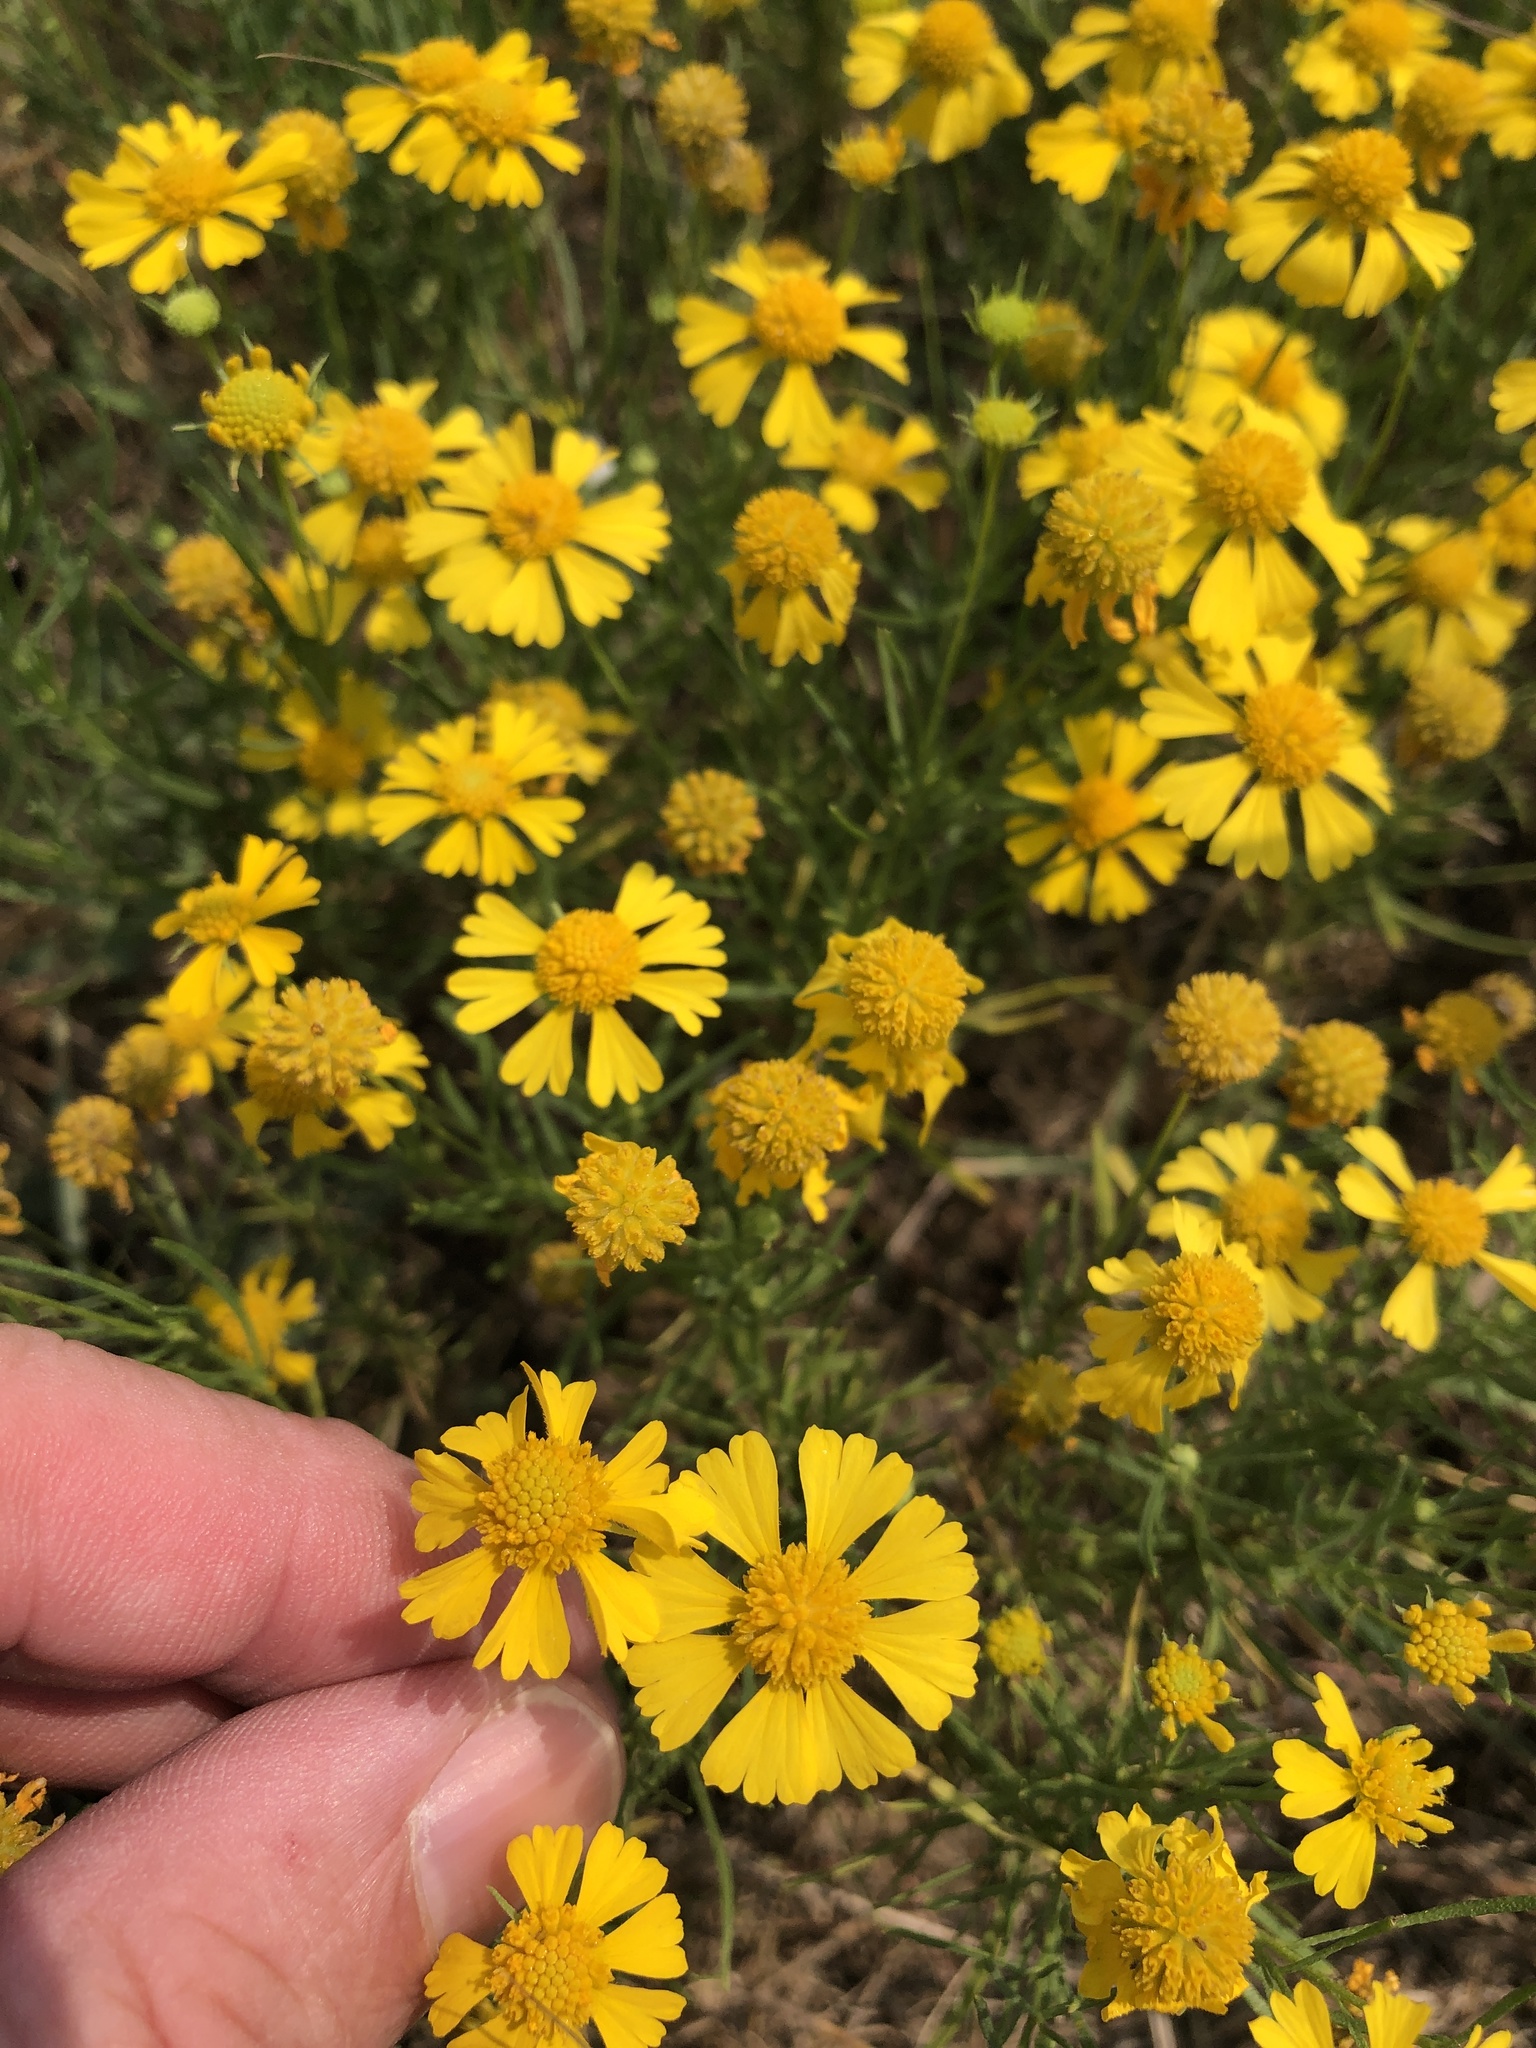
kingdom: Plantae
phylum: Tracheophyta
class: Magnoliopsida
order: Asterales
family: Asteraceae
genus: Helenium
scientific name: Helenium amarum
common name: Bitter sneezeweed
